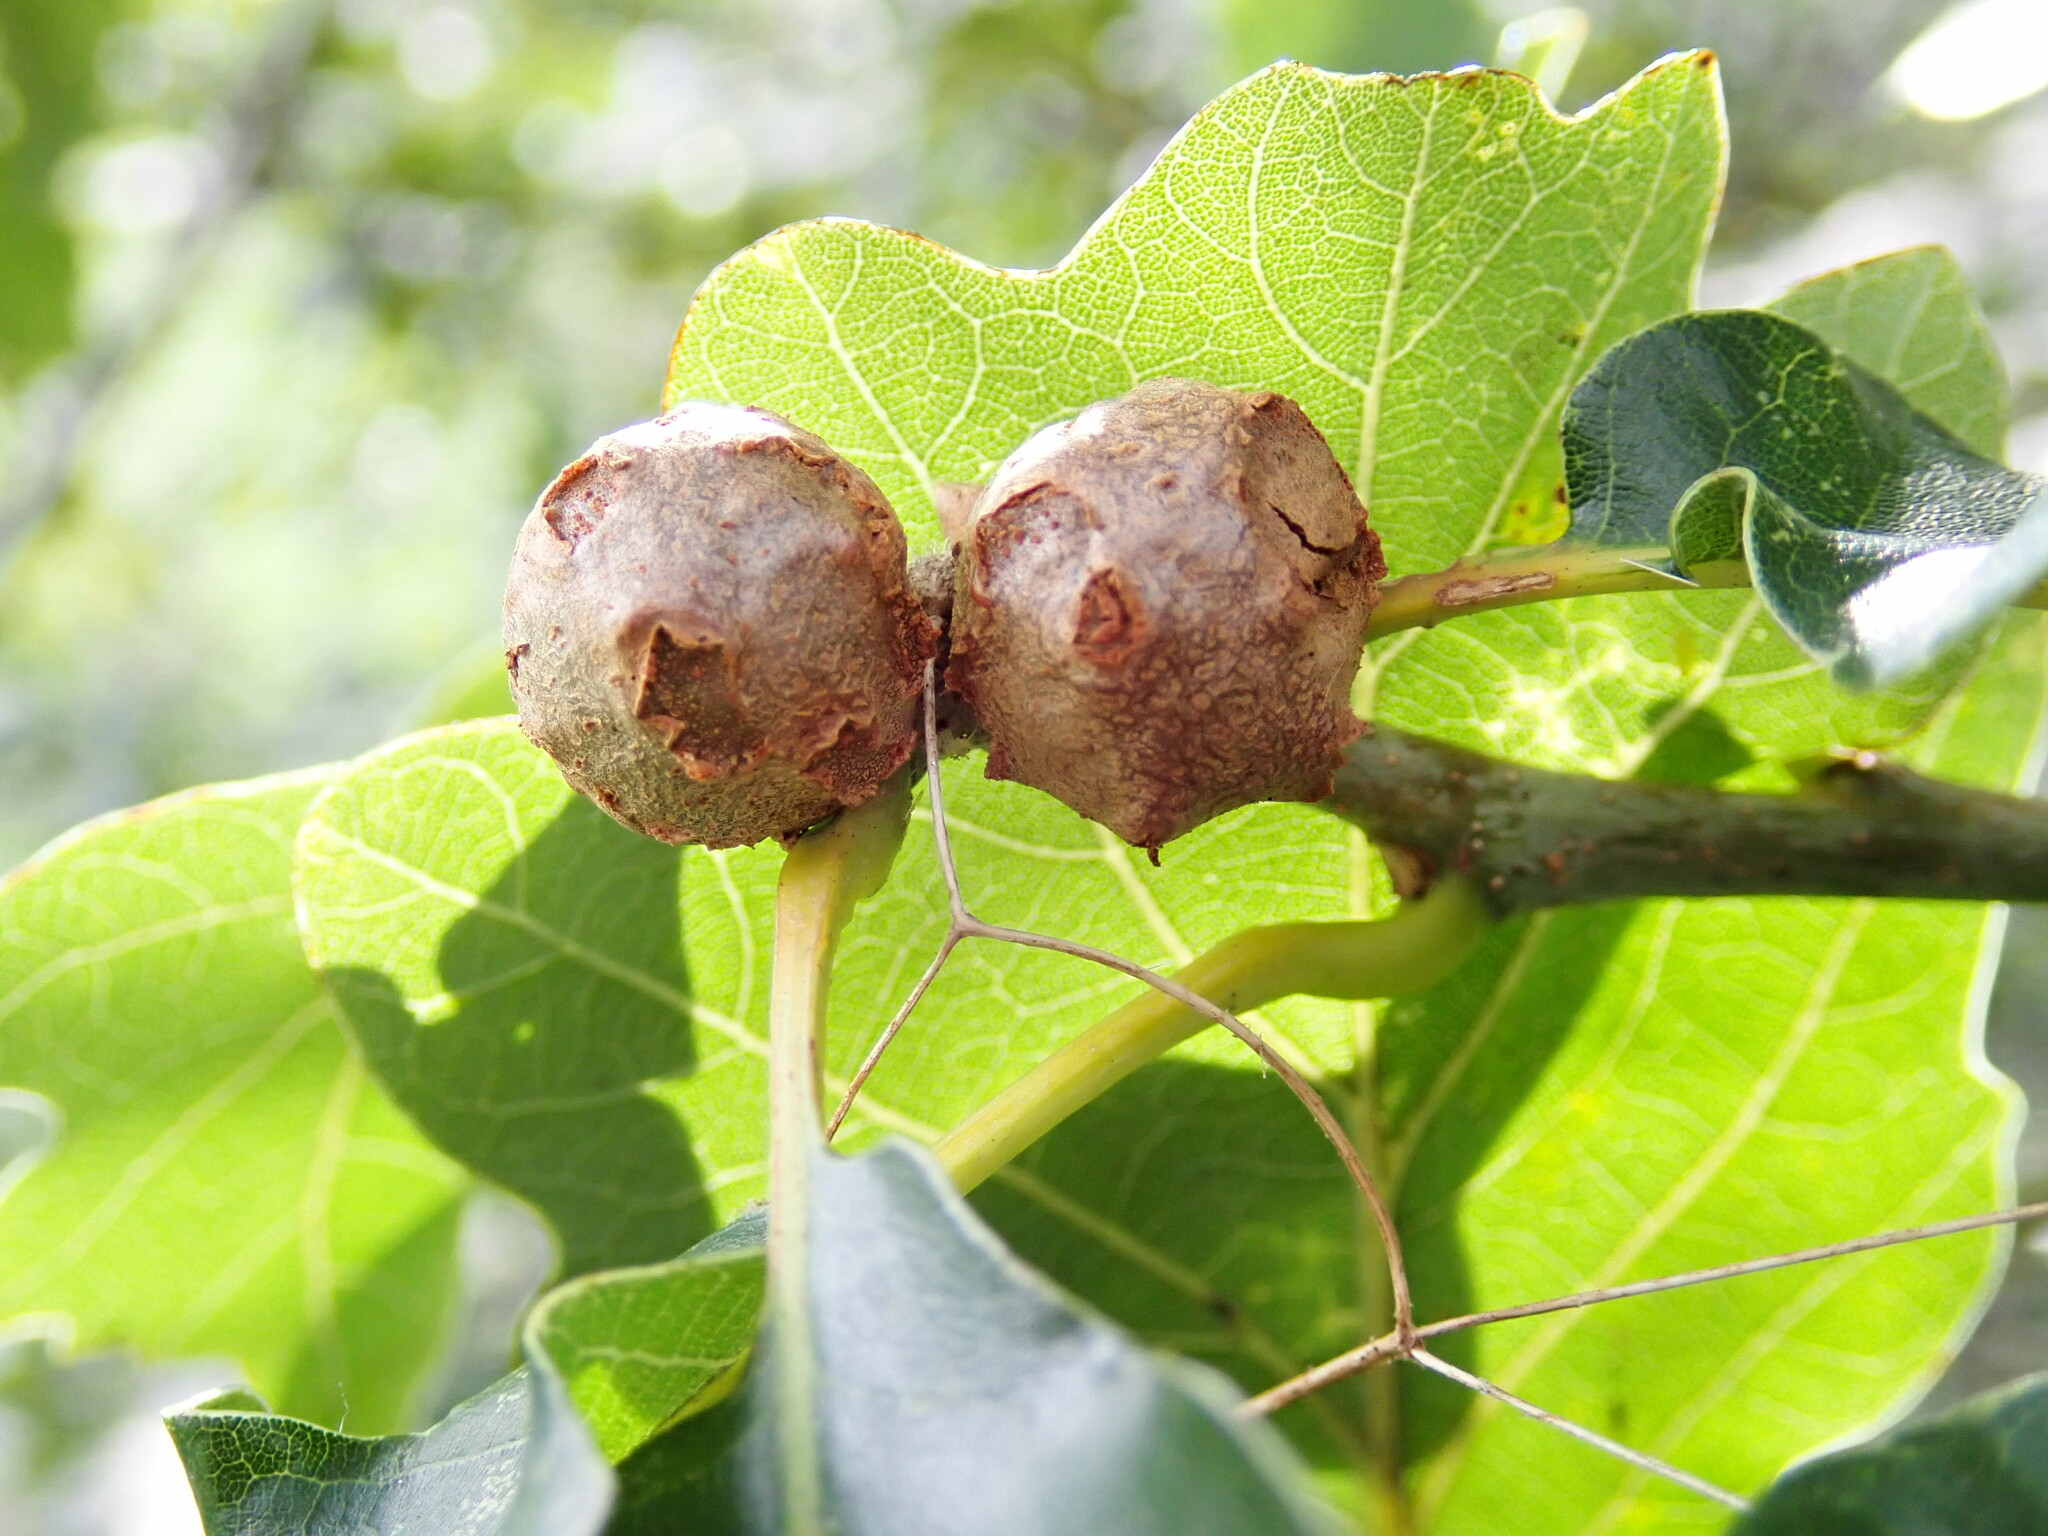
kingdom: Animalia
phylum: Arthropoda
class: Insecta
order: Hymenoptera
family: Cynipidae
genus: Andricus
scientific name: Andricus lignicolus
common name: Cola-nut gall
